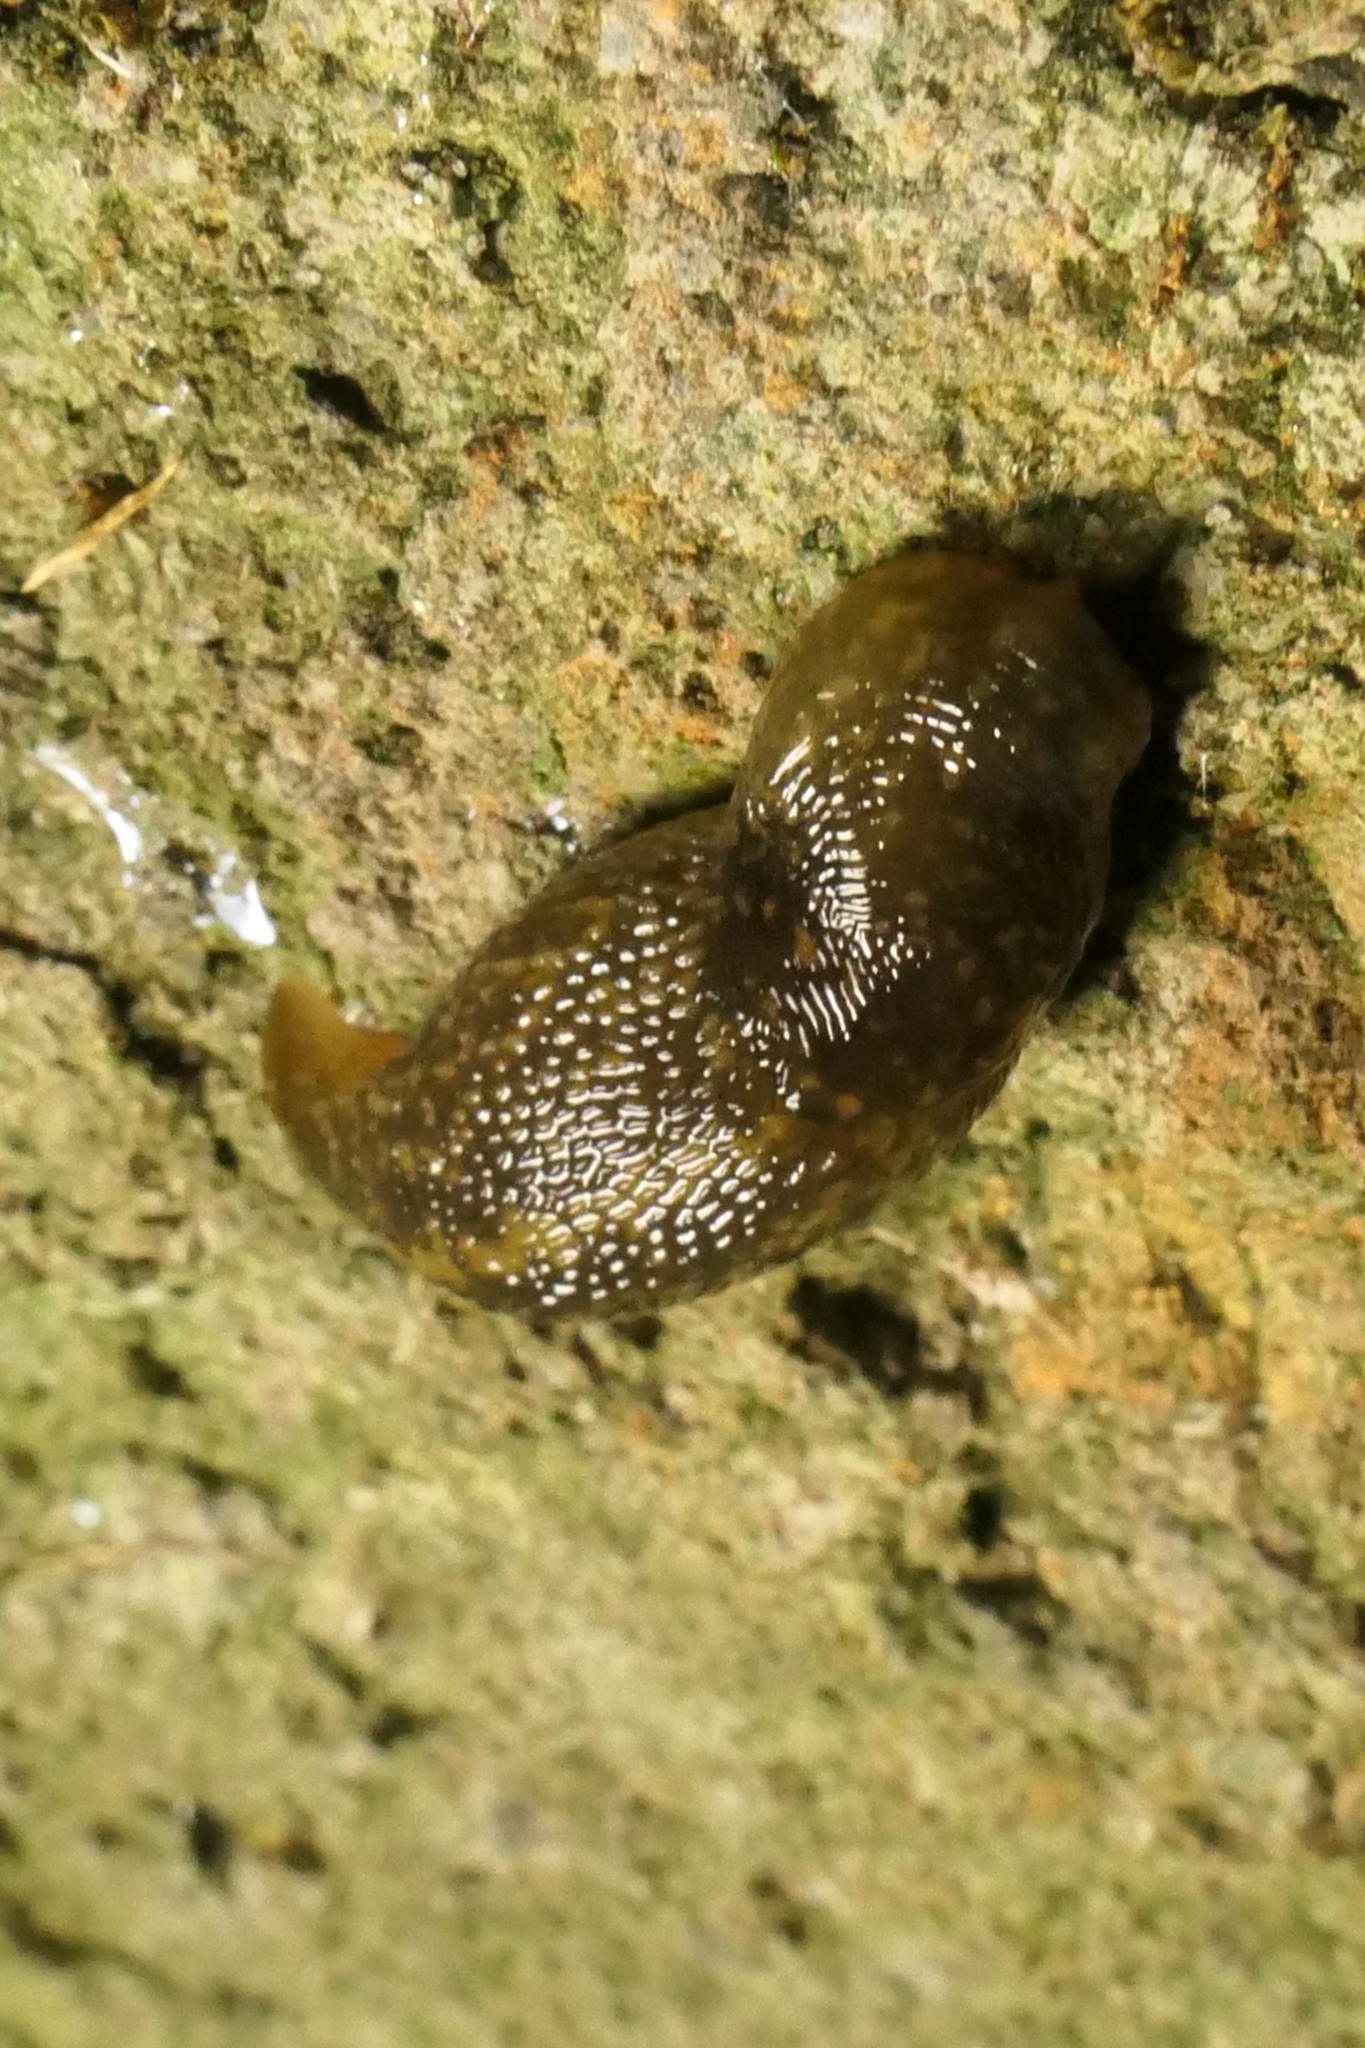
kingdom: Animalia
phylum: Mollusca
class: Gastropoda
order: Stylommatophora
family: Limacidae
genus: Limacus
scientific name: Limacus flavus
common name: Yellow gardenslug
